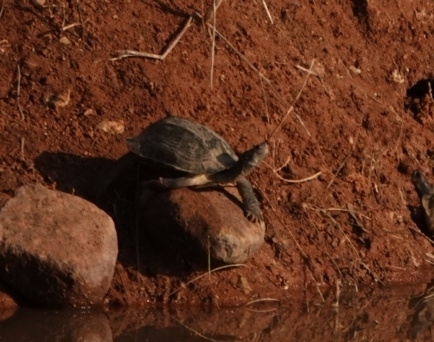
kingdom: Animalia
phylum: Chordata
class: Testudines
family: Geoemydidae
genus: Melanochelys
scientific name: Melanochelys trijuga
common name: Indian black turtle
